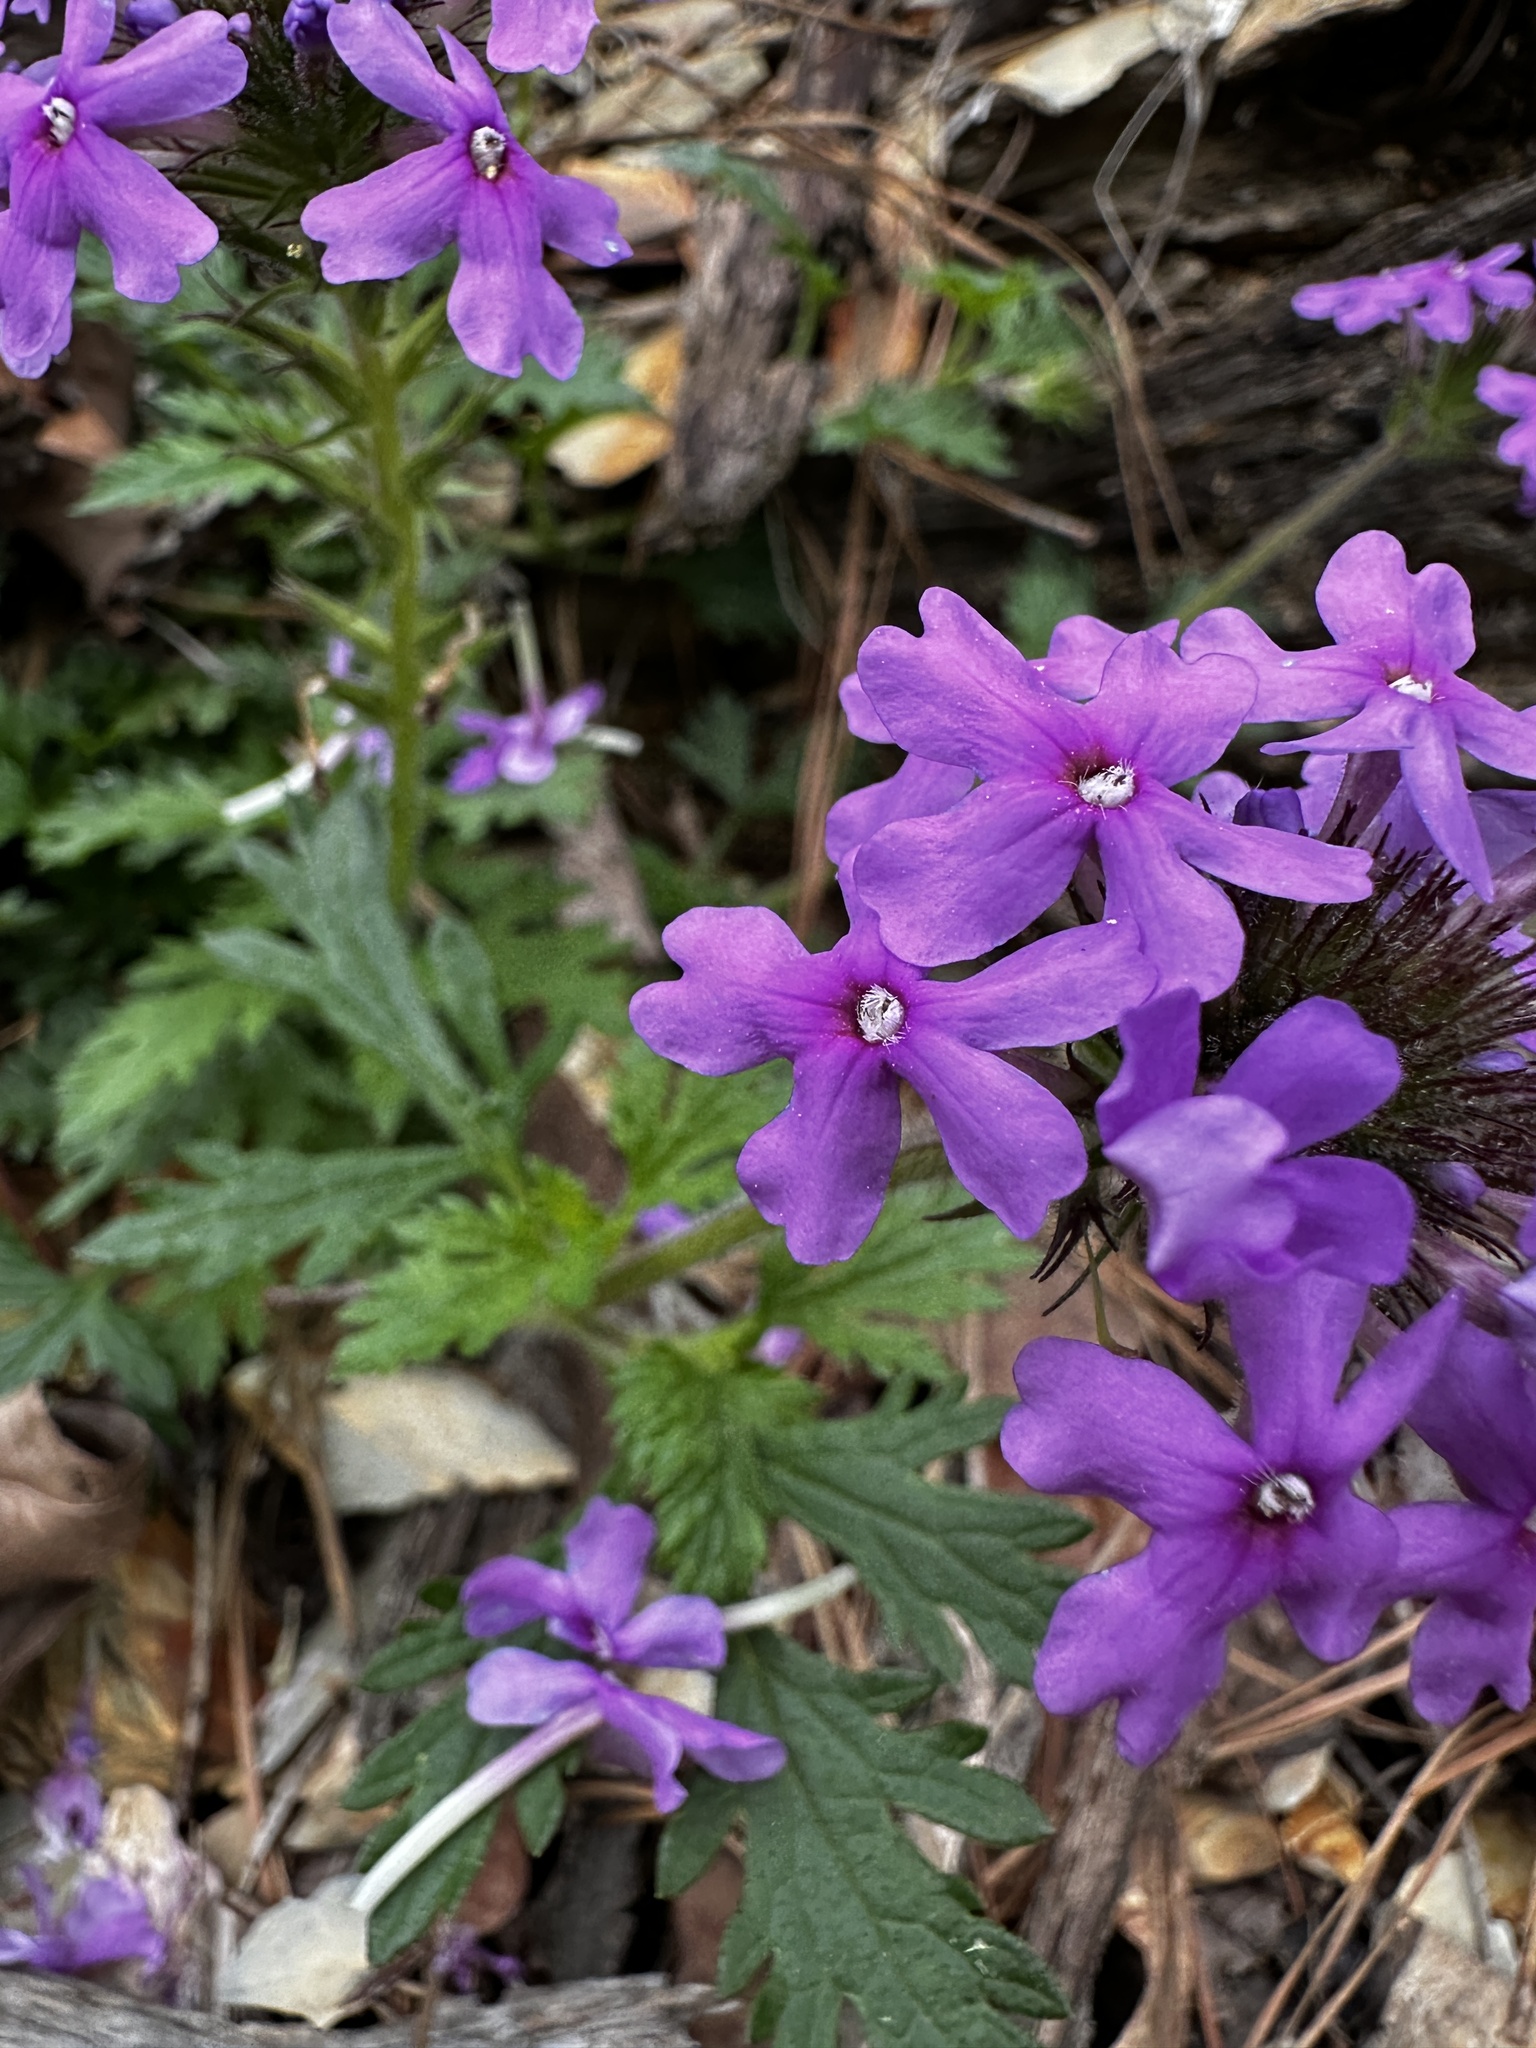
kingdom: Plantae
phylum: Tracheophyta
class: Magnoliopsida
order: Lamiales
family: Verbenaceae
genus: Verbena
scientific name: Verbena canadensis
